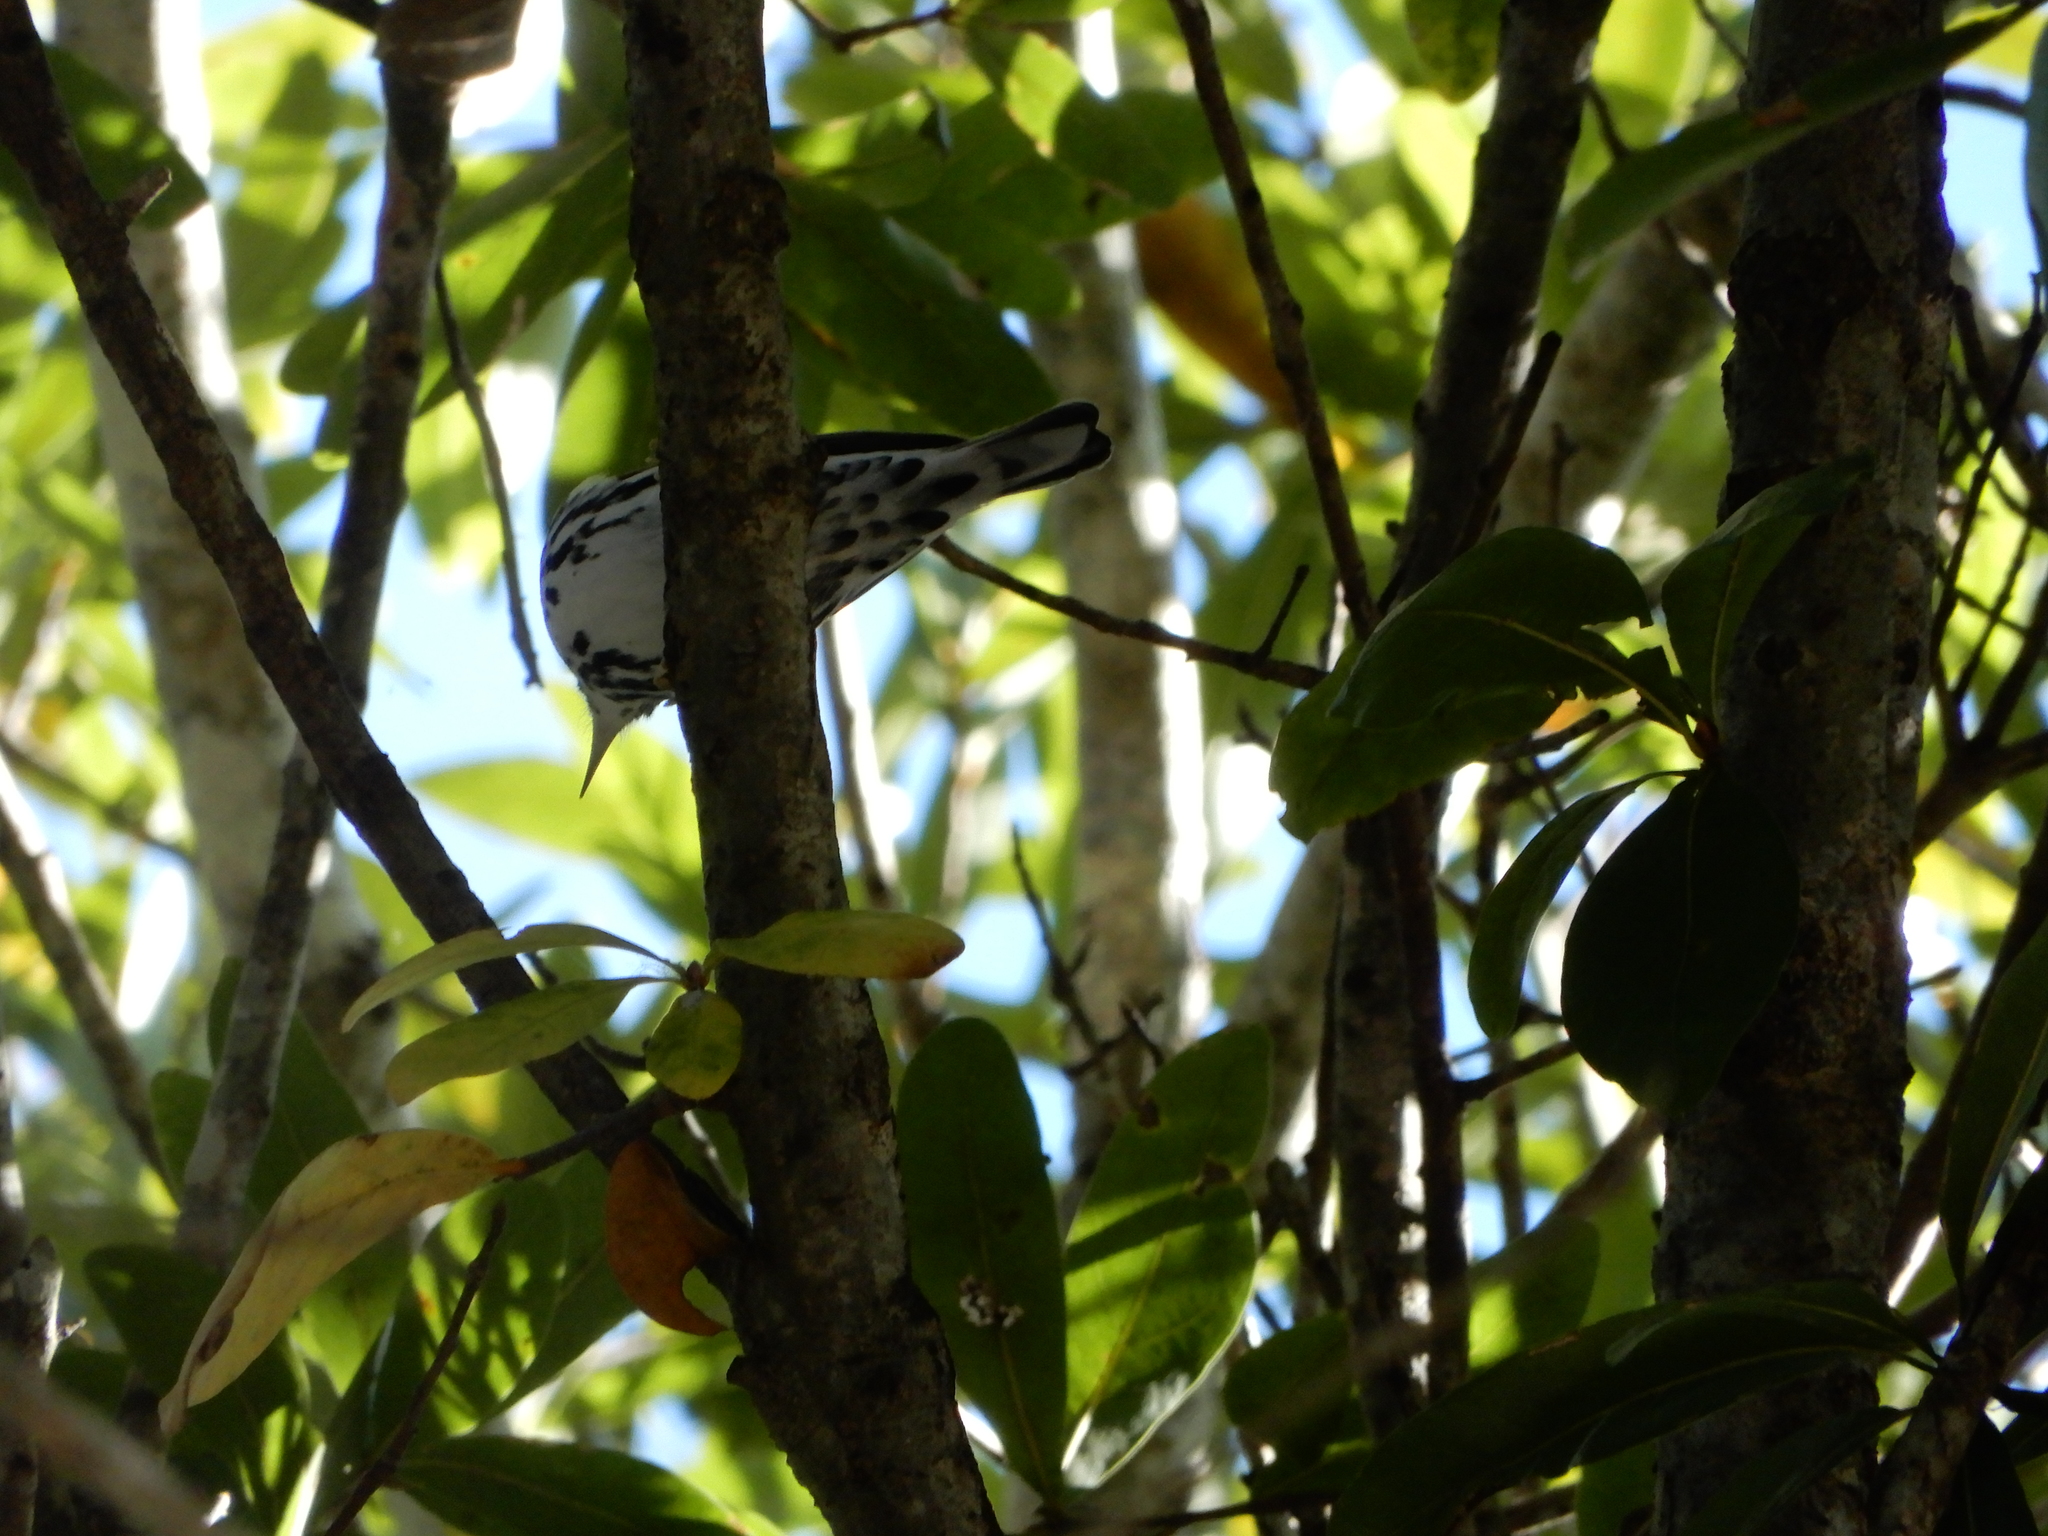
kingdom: Animalia
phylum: Chordata
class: Aves
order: Passeriformes
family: Parulidae
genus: Mniotilta
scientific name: Mniotilta varia
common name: Black-and-white warbler
